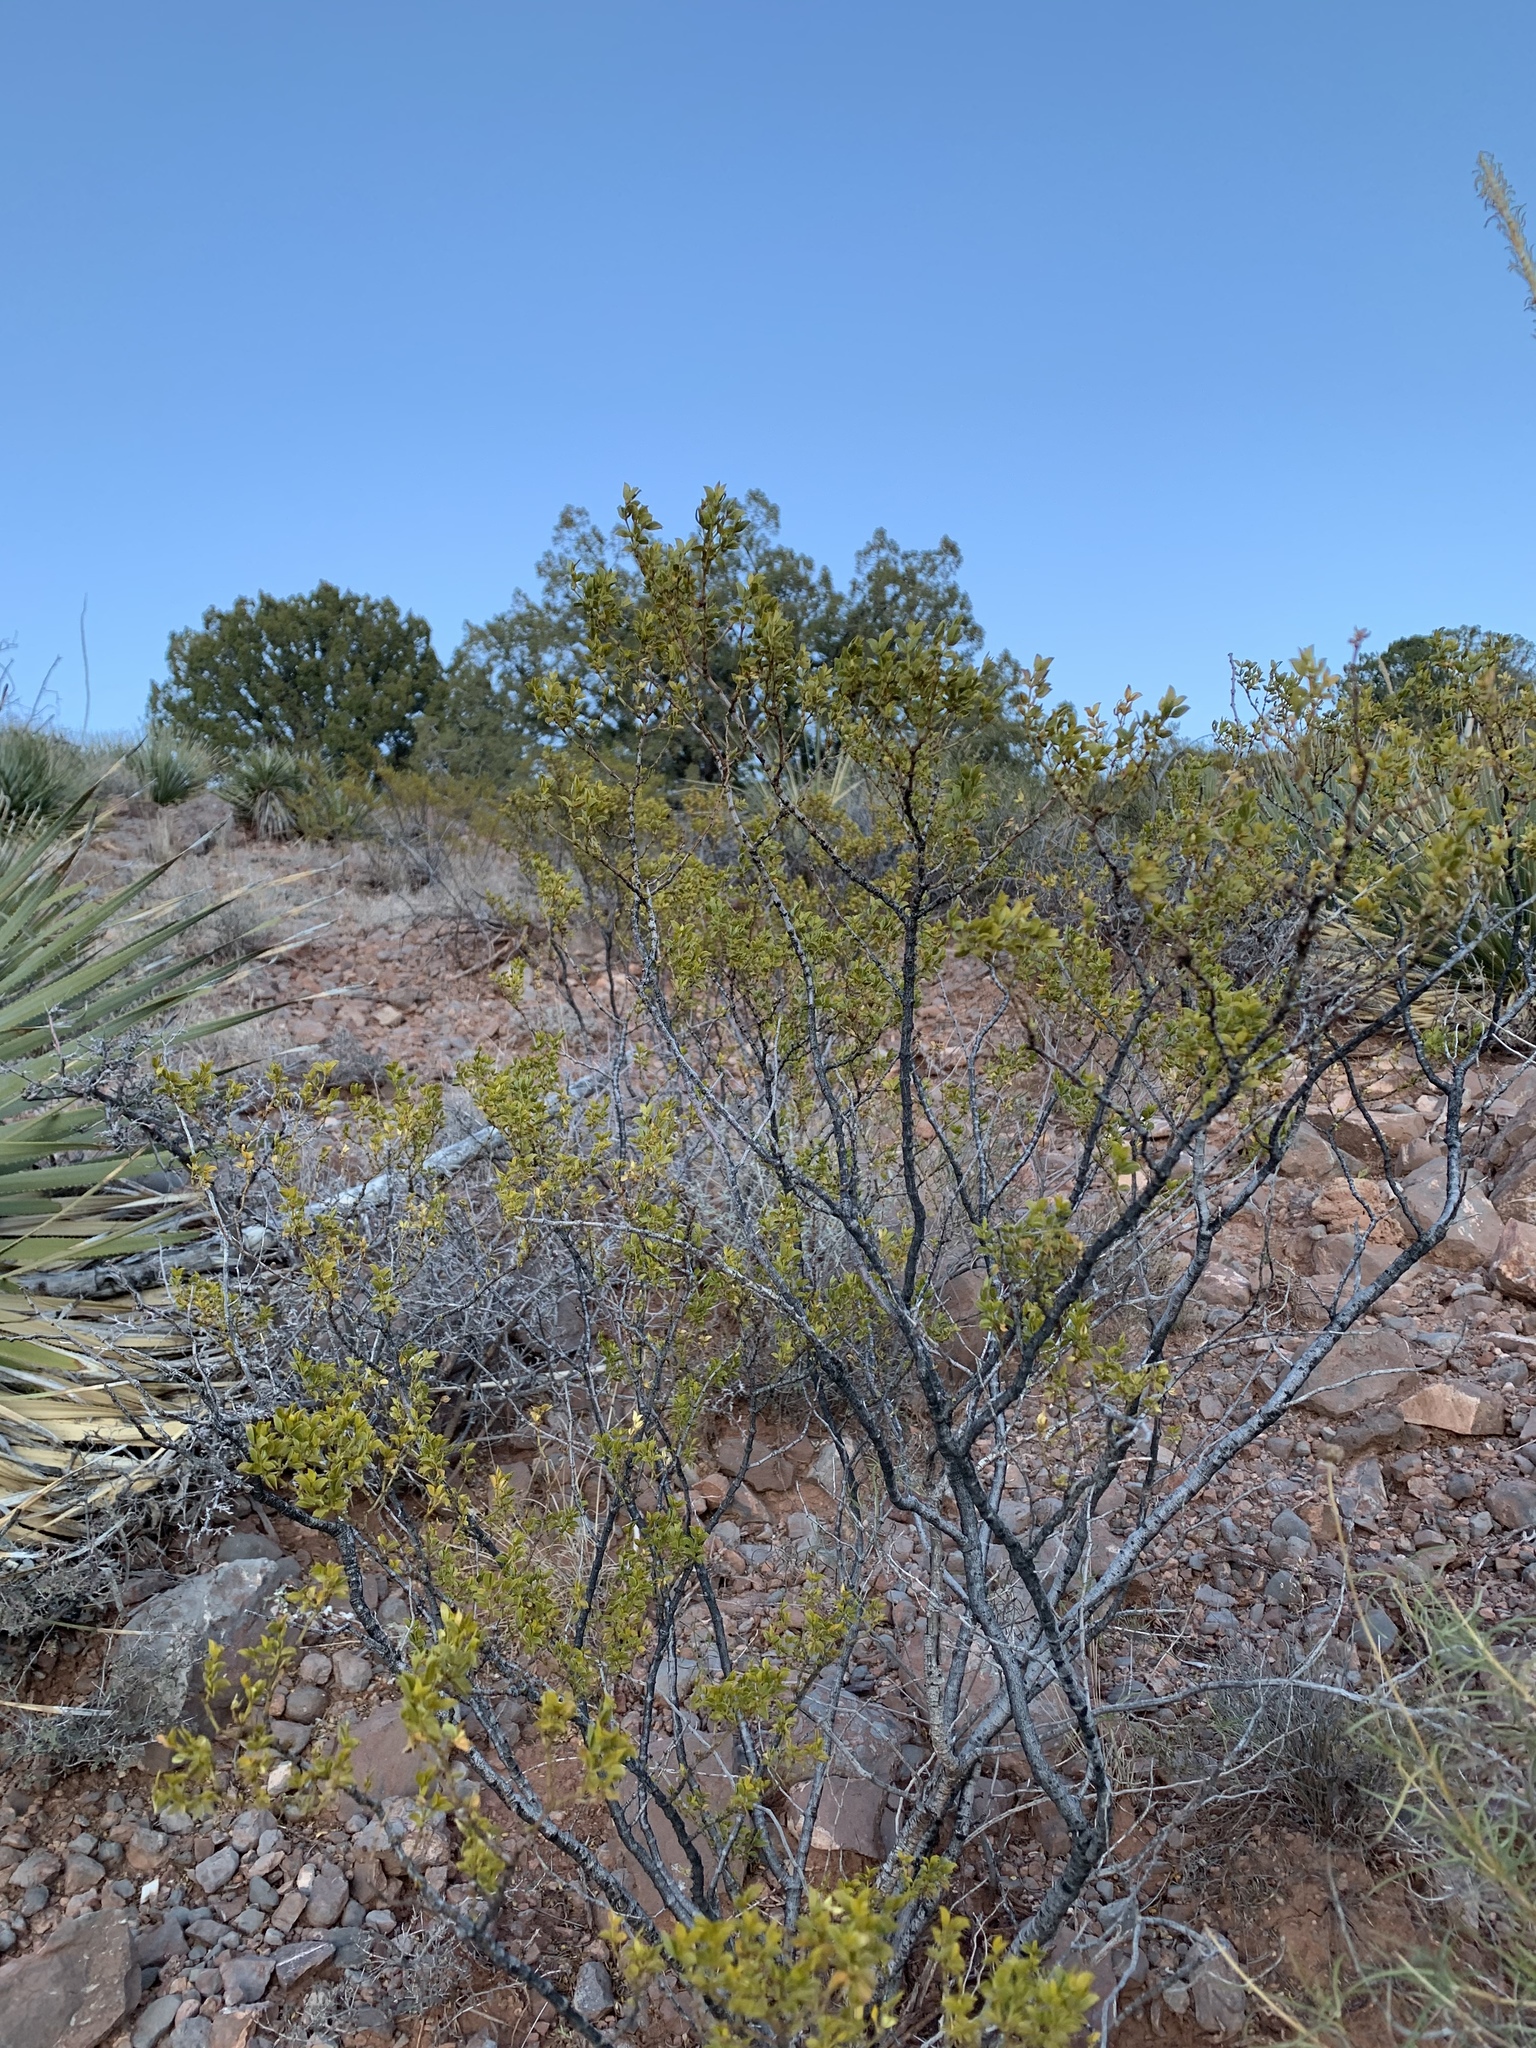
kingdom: Plantae
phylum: Tracheophyta
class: Magnoliopsida
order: Zygophyllales
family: Zygophyllaceae
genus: Larrea
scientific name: Larrea tridentata
